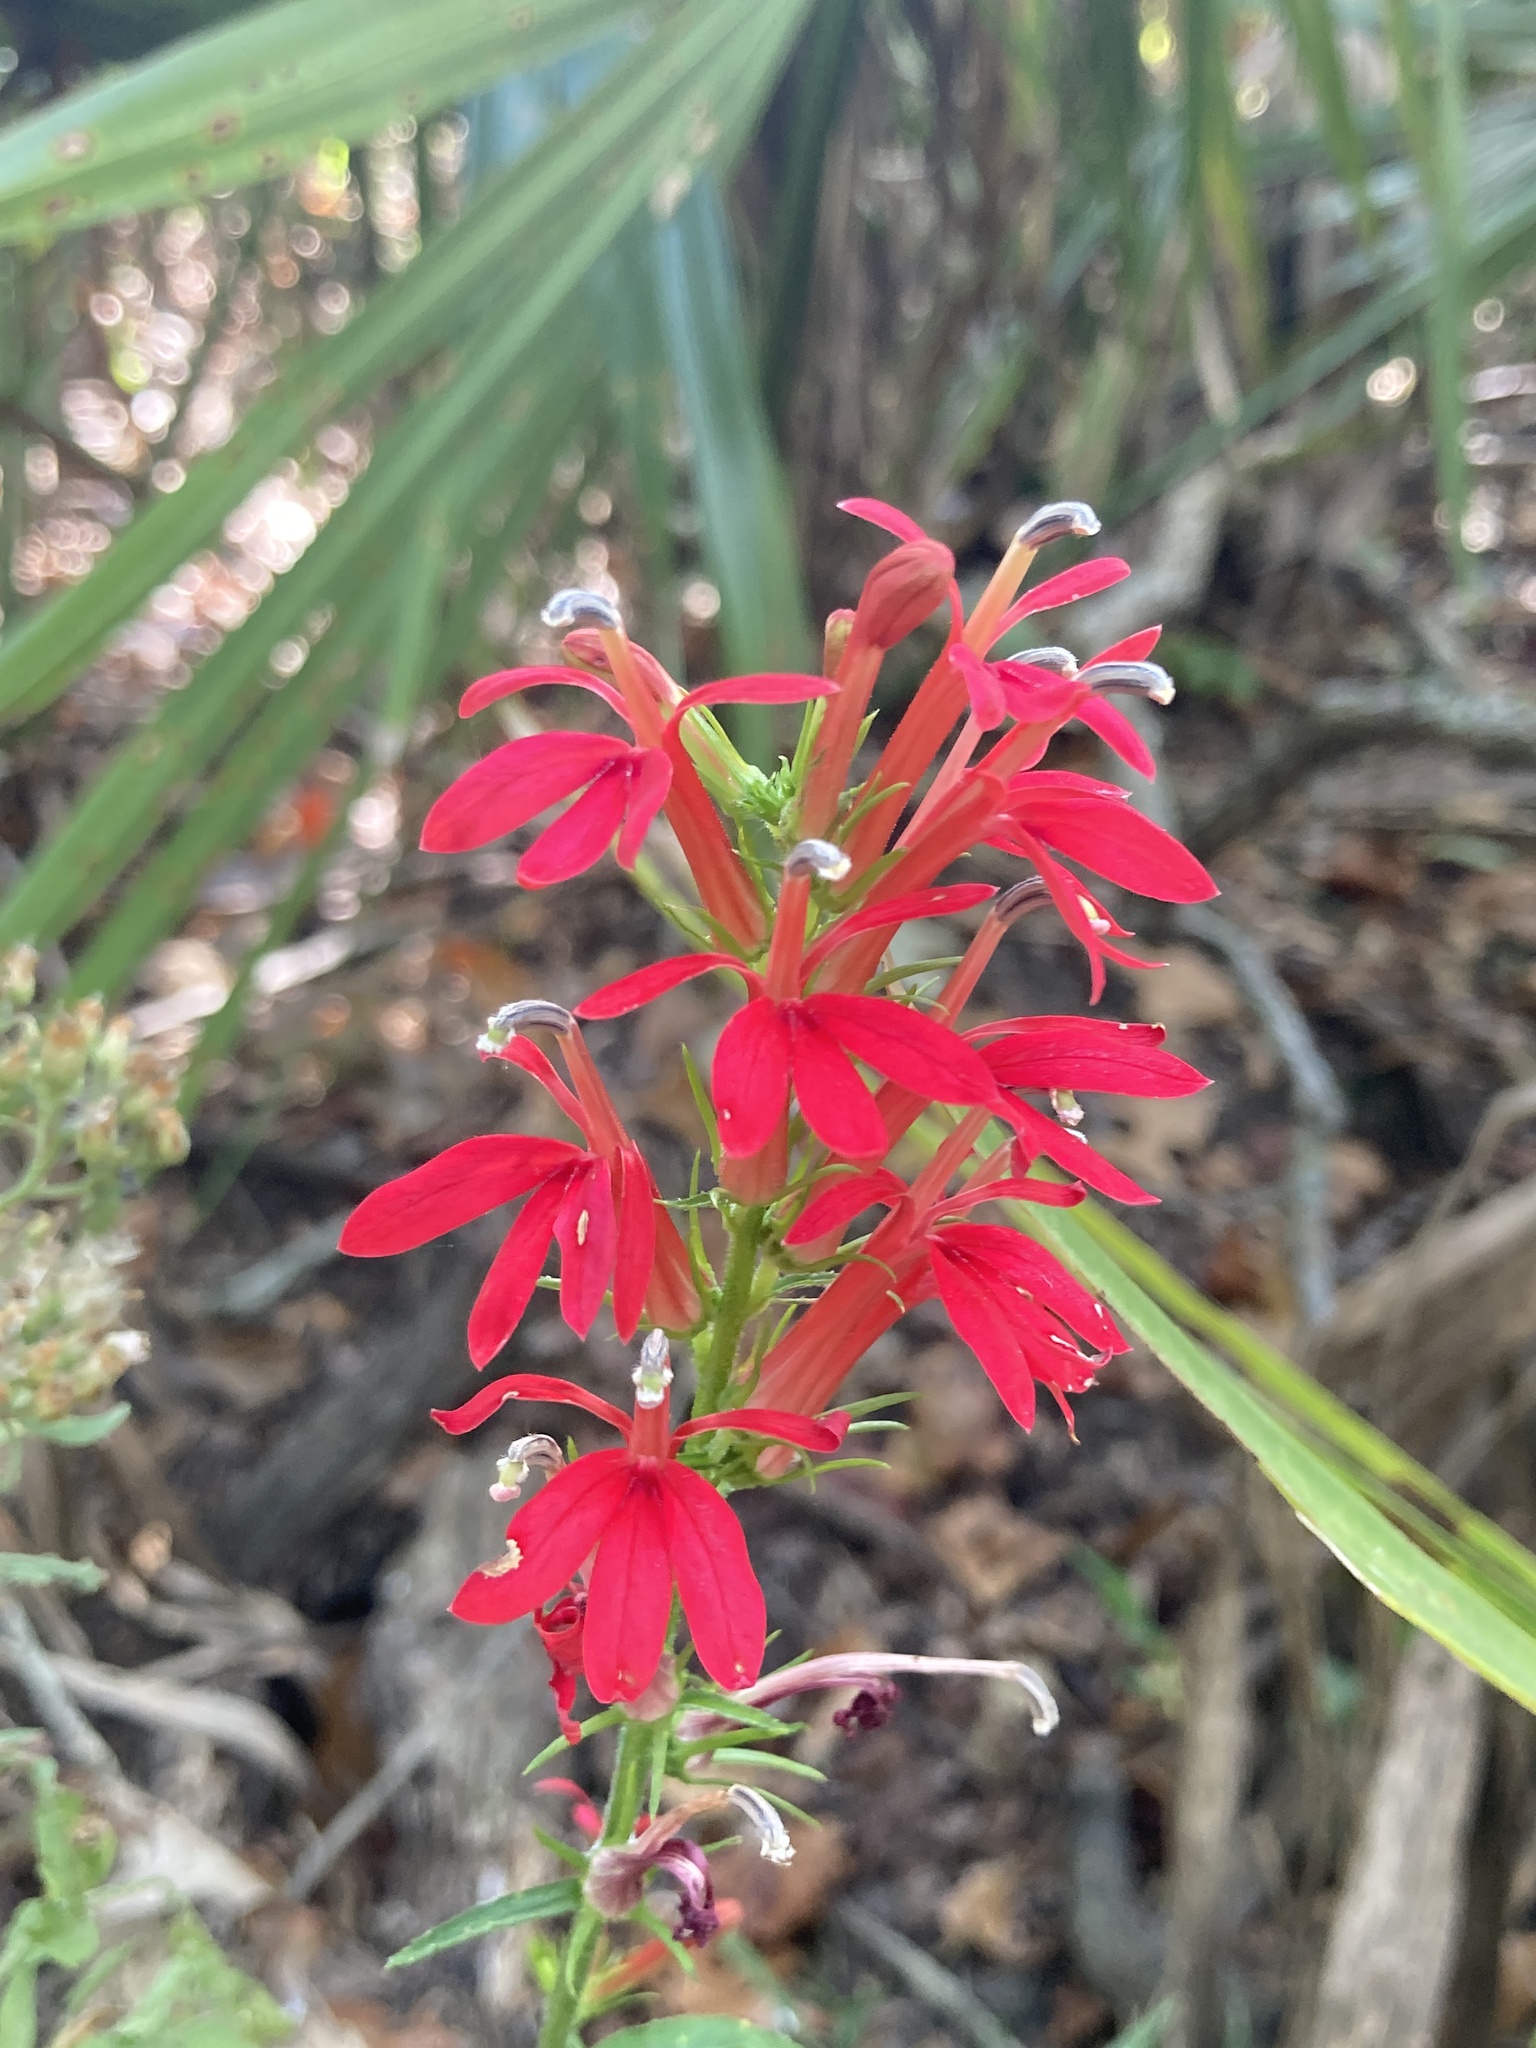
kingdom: Plantae
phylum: Tracheophyta
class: Magnoliopsida
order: Asterales
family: Campanulaceae
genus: Lobelia
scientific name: Lobelia cardinalis
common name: Cardinal flower
